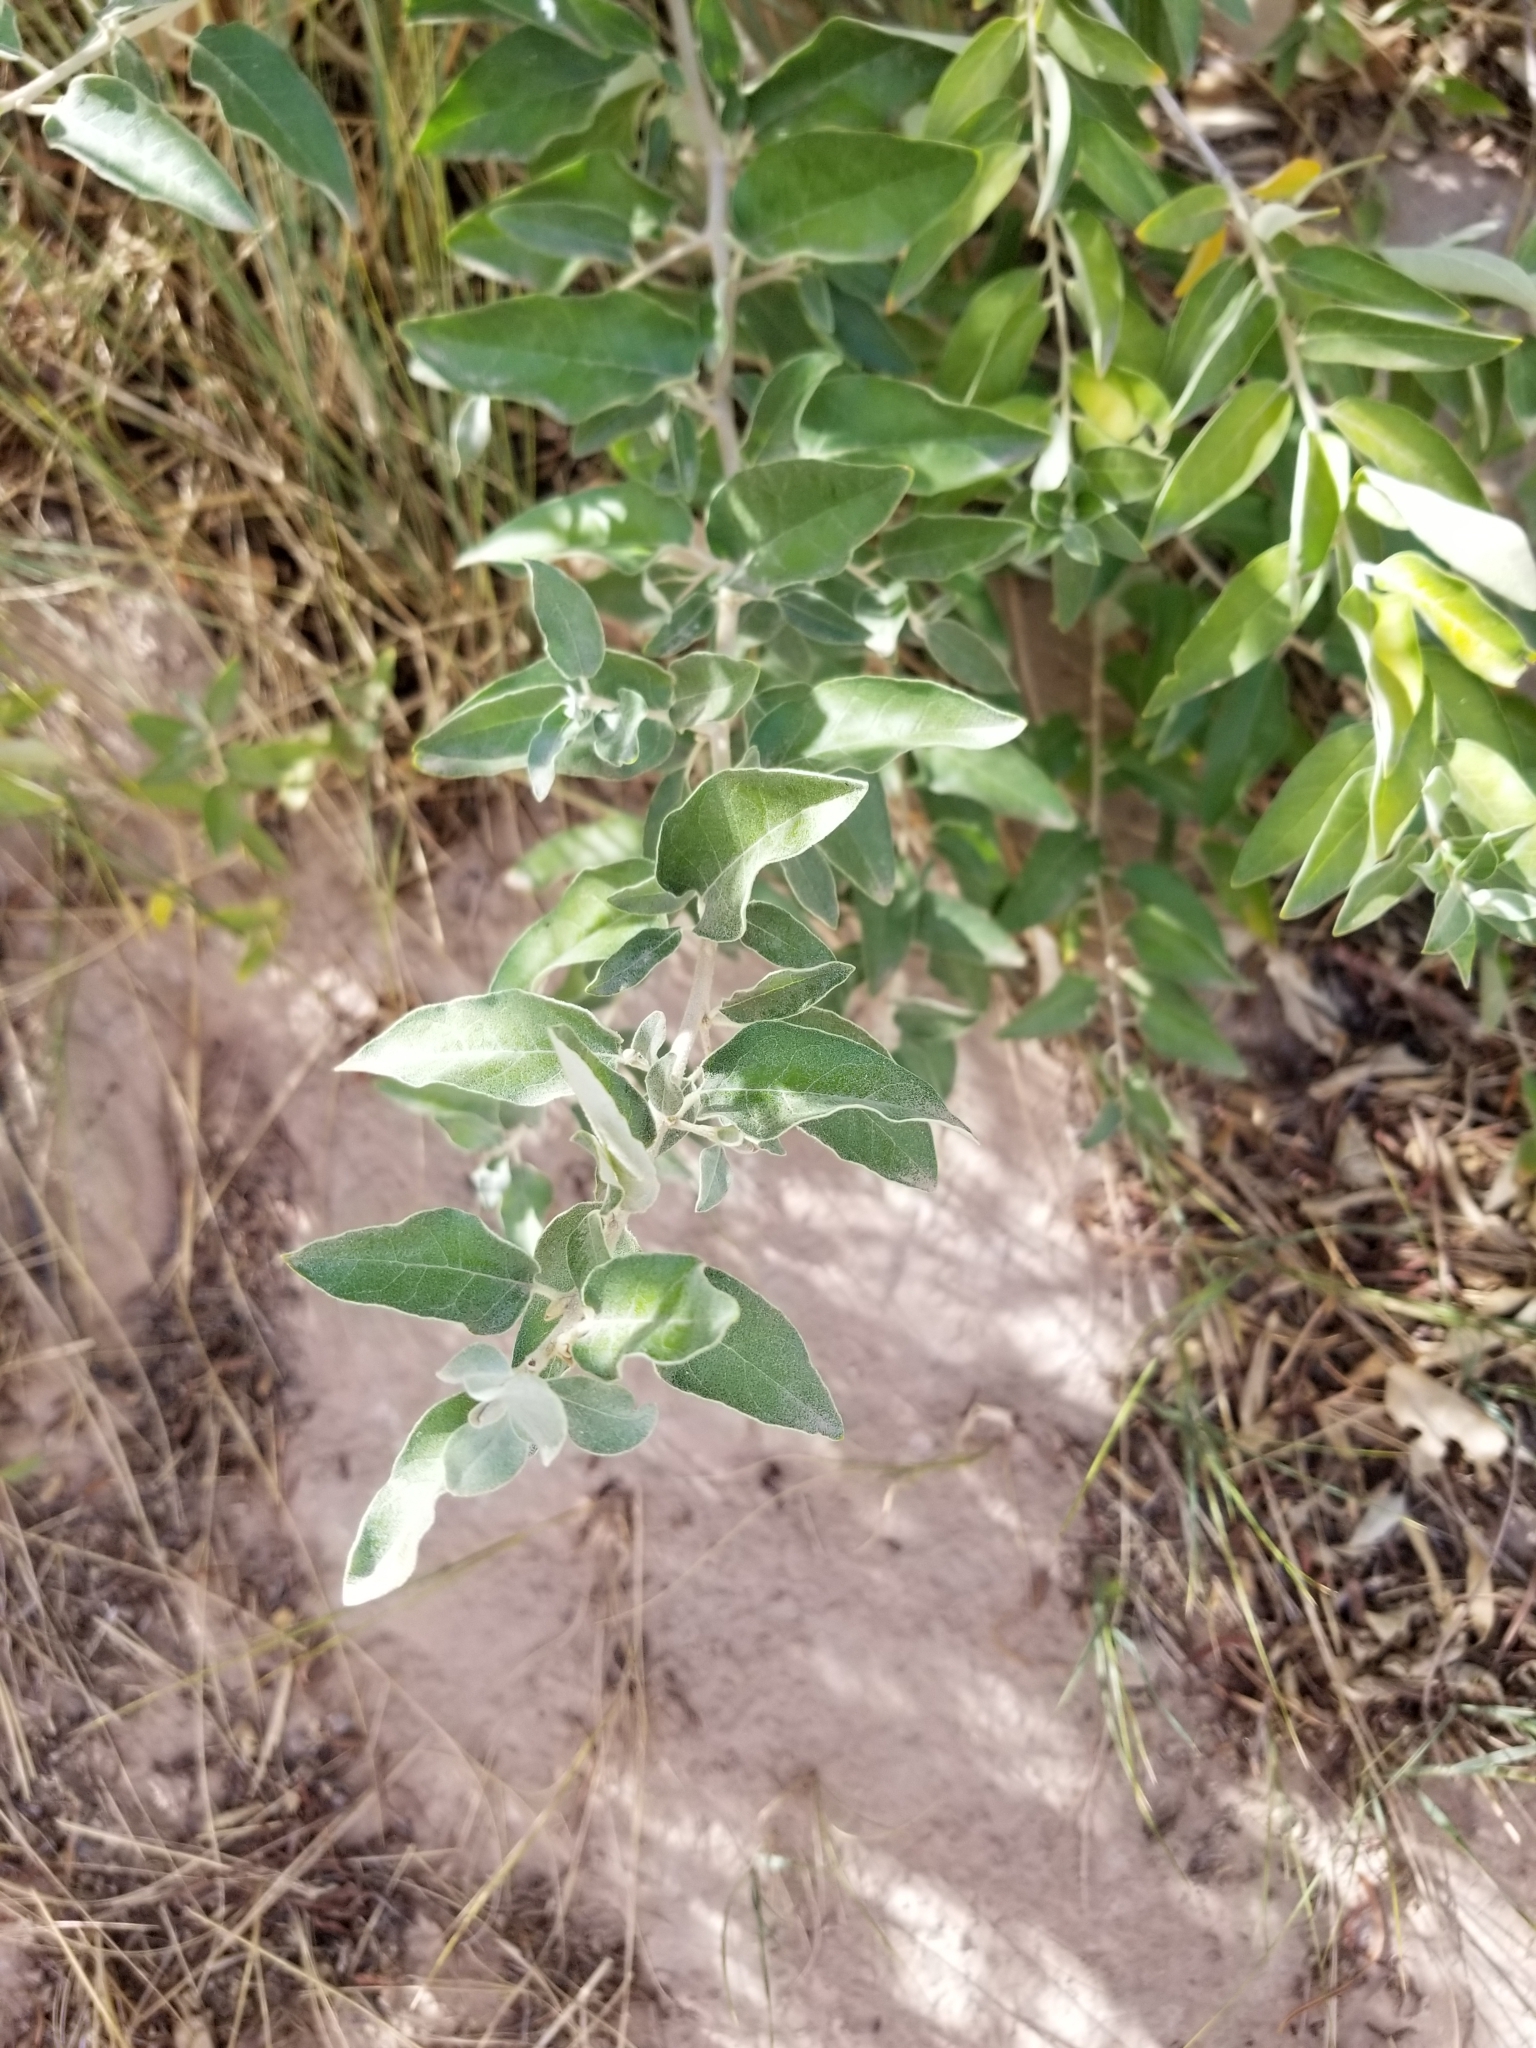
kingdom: Plantae
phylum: Tracheophyta
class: Magnoliopsida
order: Rosales
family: Elaeagnaceae
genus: Elaeagnus
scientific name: Elaeagnus angustifolia
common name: Russian olive
